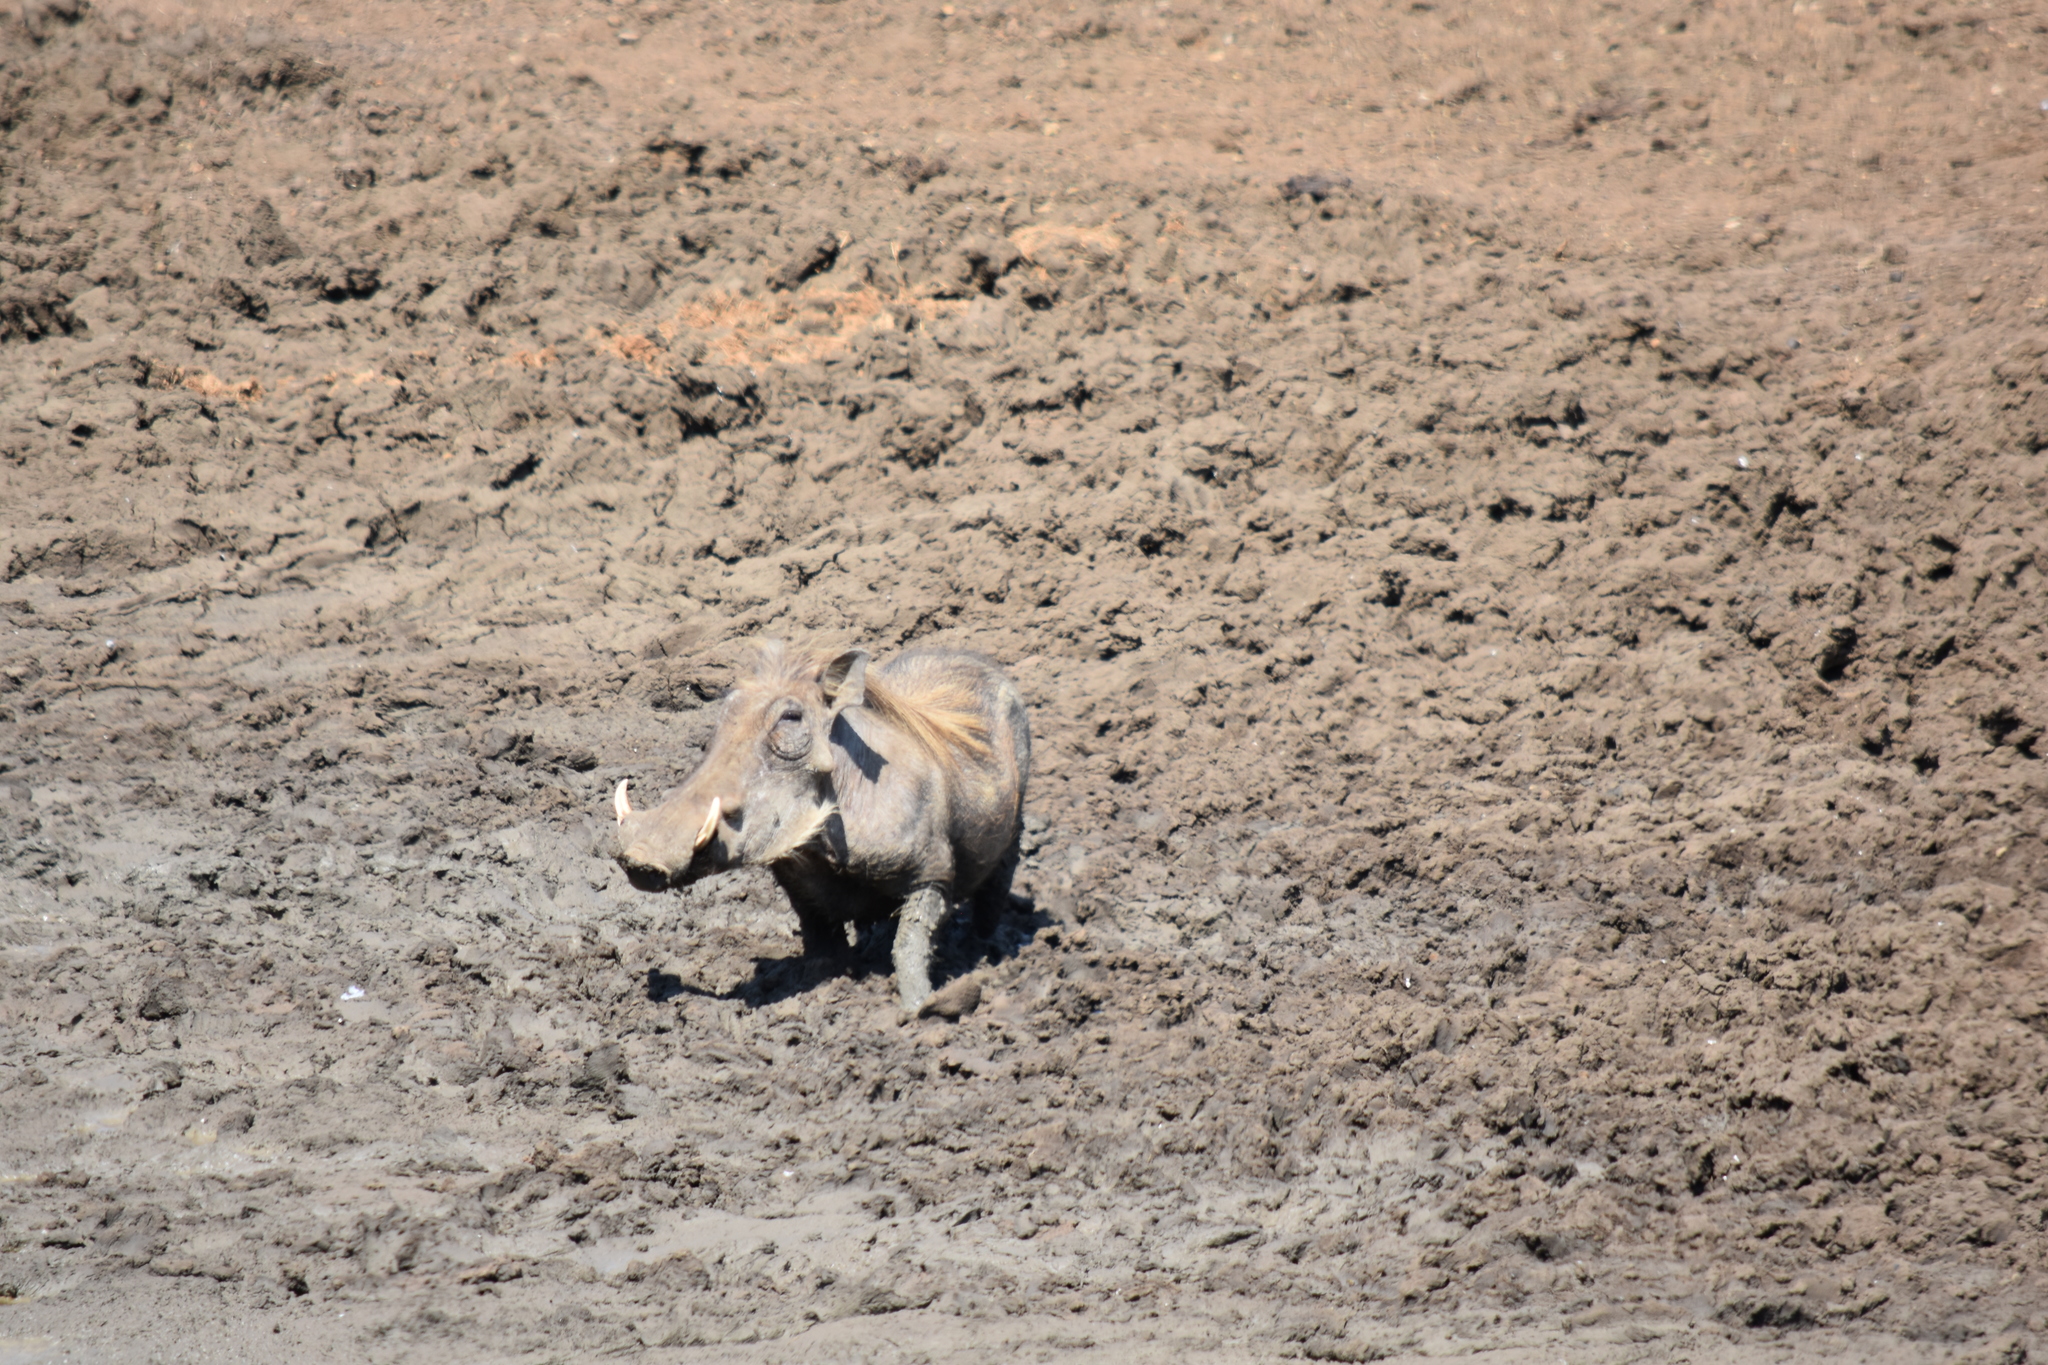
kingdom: Animalia
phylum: Chordata
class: Mammalia
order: Artiodactyla
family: Suidae
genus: Phacochoerus
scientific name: Phacochoerus africanus
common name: Common warthog
